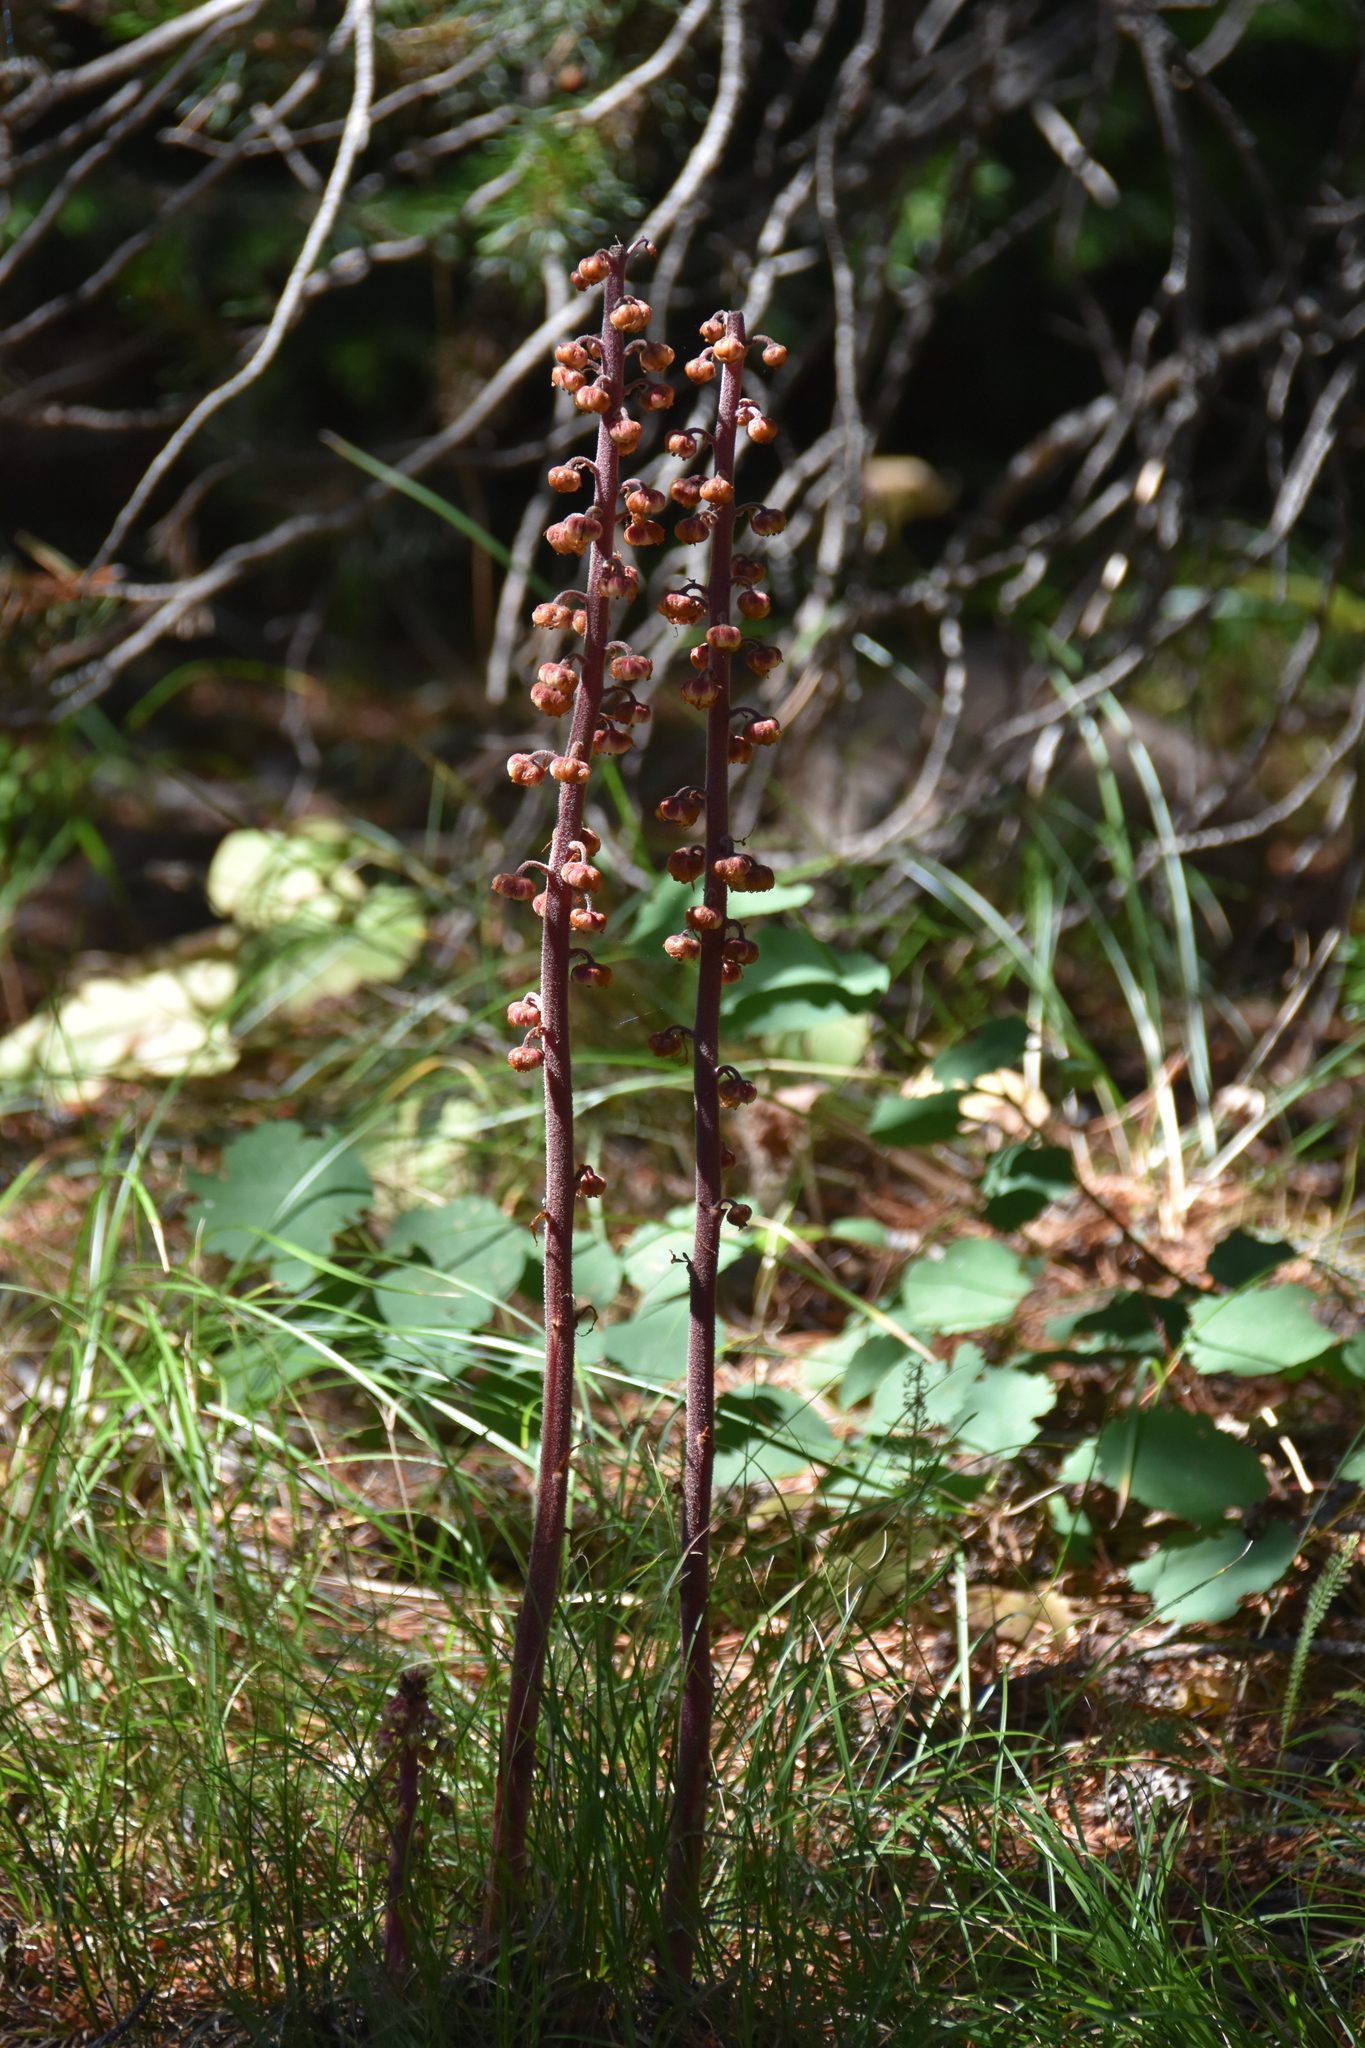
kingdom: Plantae
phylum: Tracheophyta
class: Magnoliopsida
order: Ericales
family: Ericaceae
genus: Pterospora
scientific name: Pterospora andromedea
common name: Giant bird's-nest
